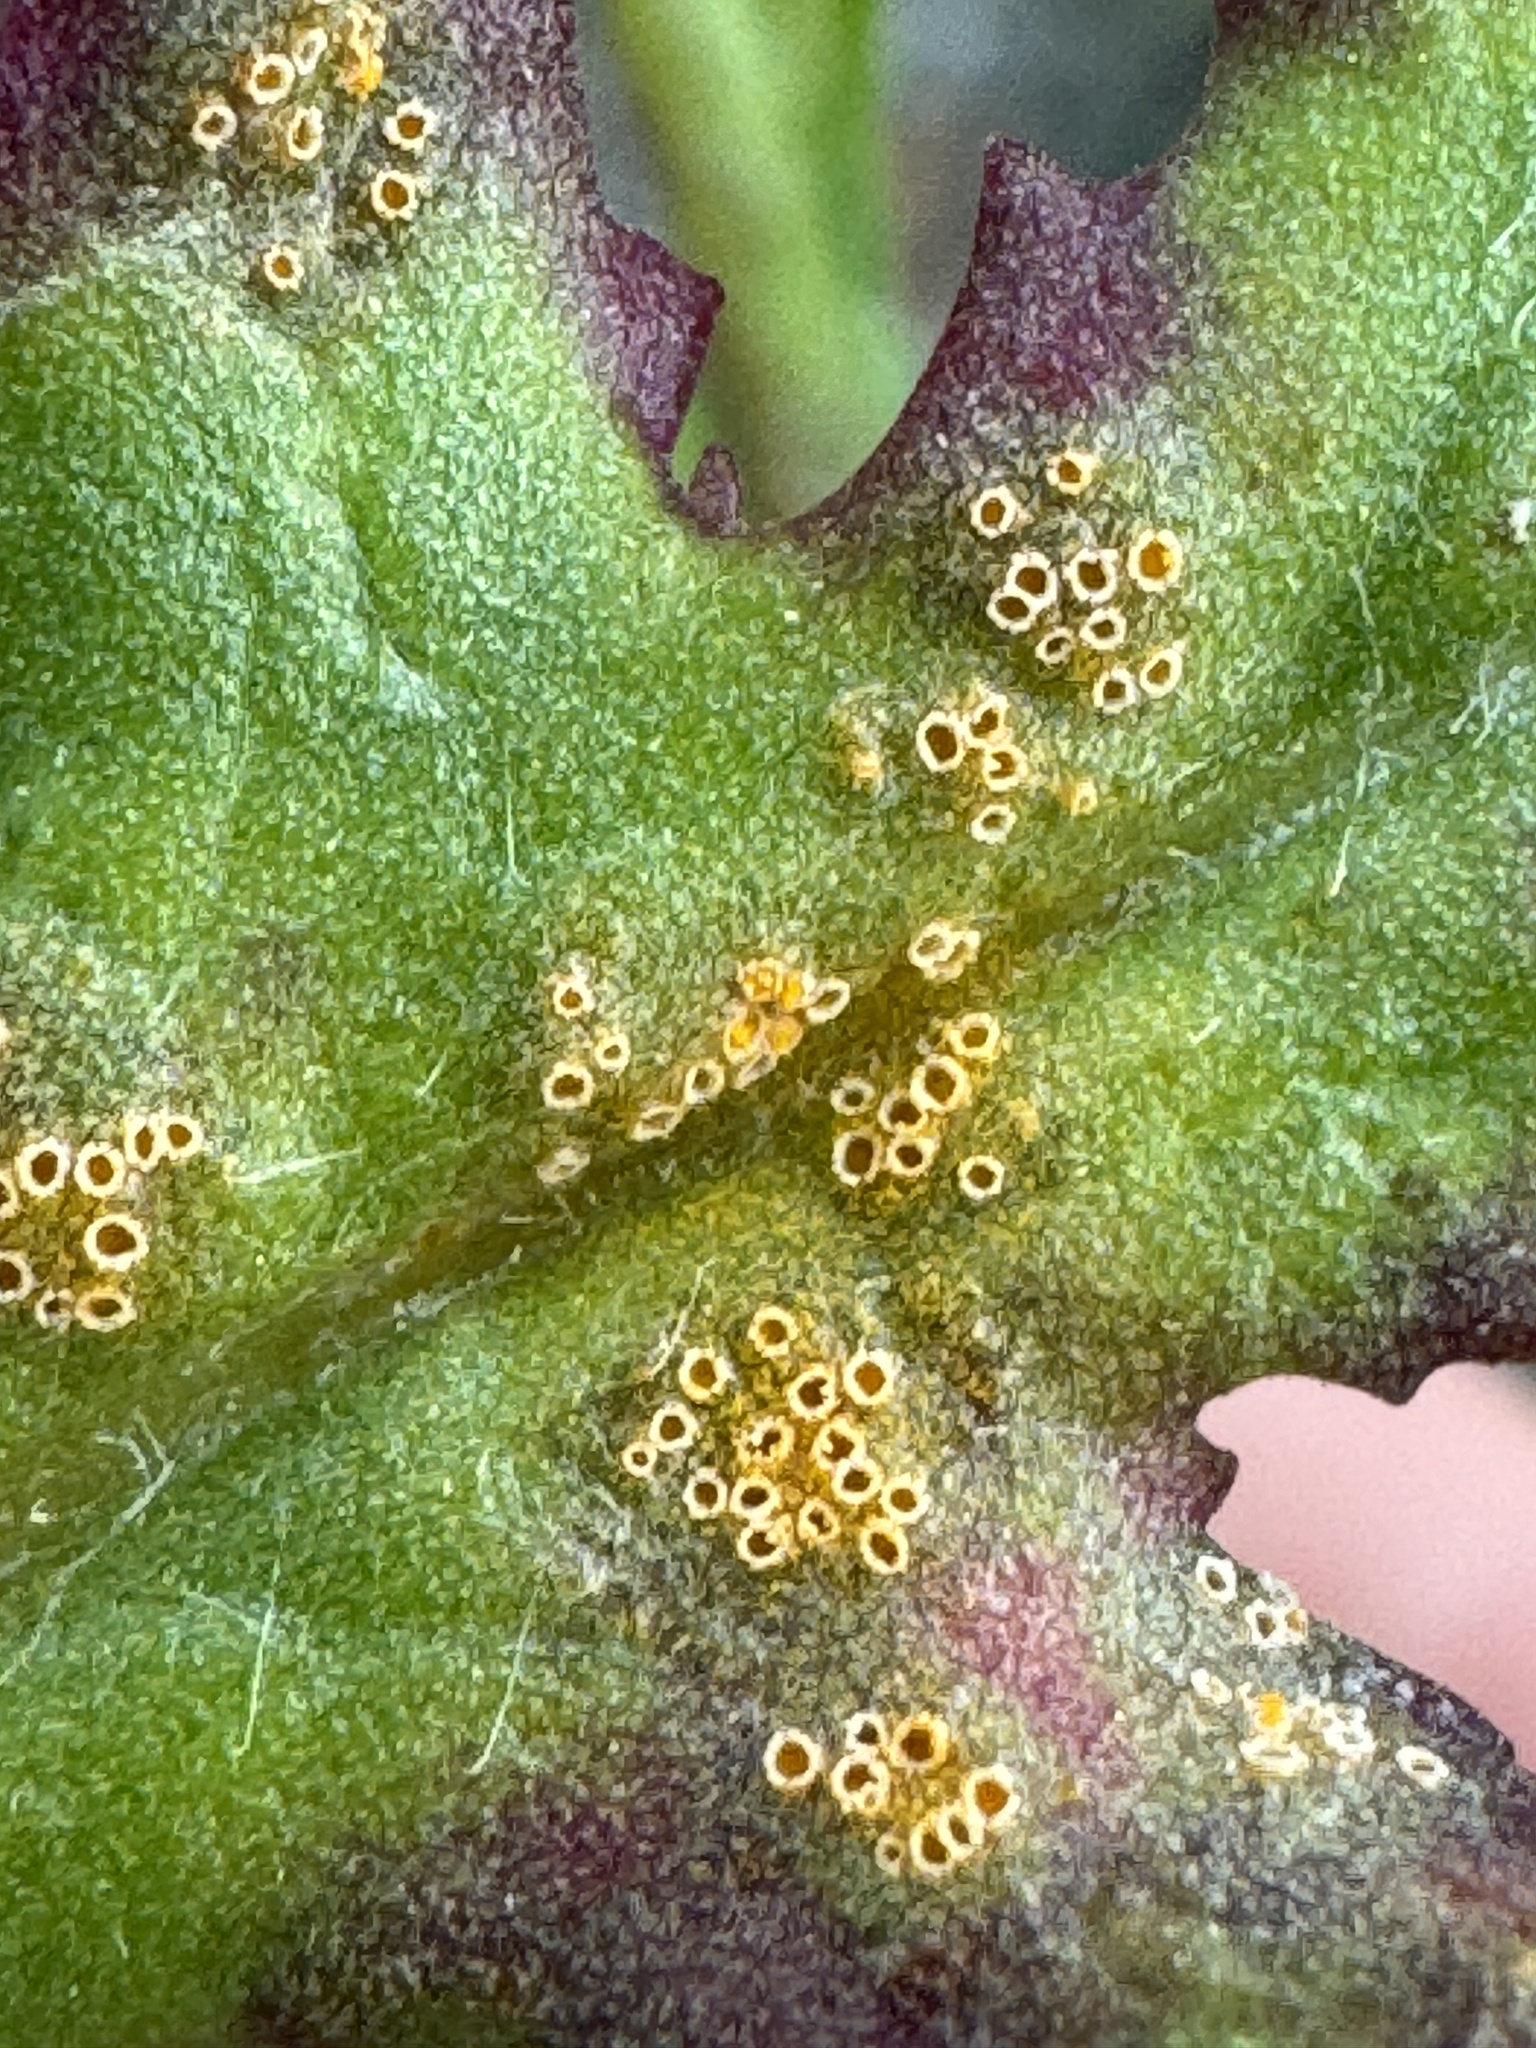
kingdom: Fungi
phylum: Basidiomycota
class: Pucciniomycetes
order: Pucciniales
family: Pucciniaceae
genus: Puccinia
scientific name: Puccinia lagenophorae
